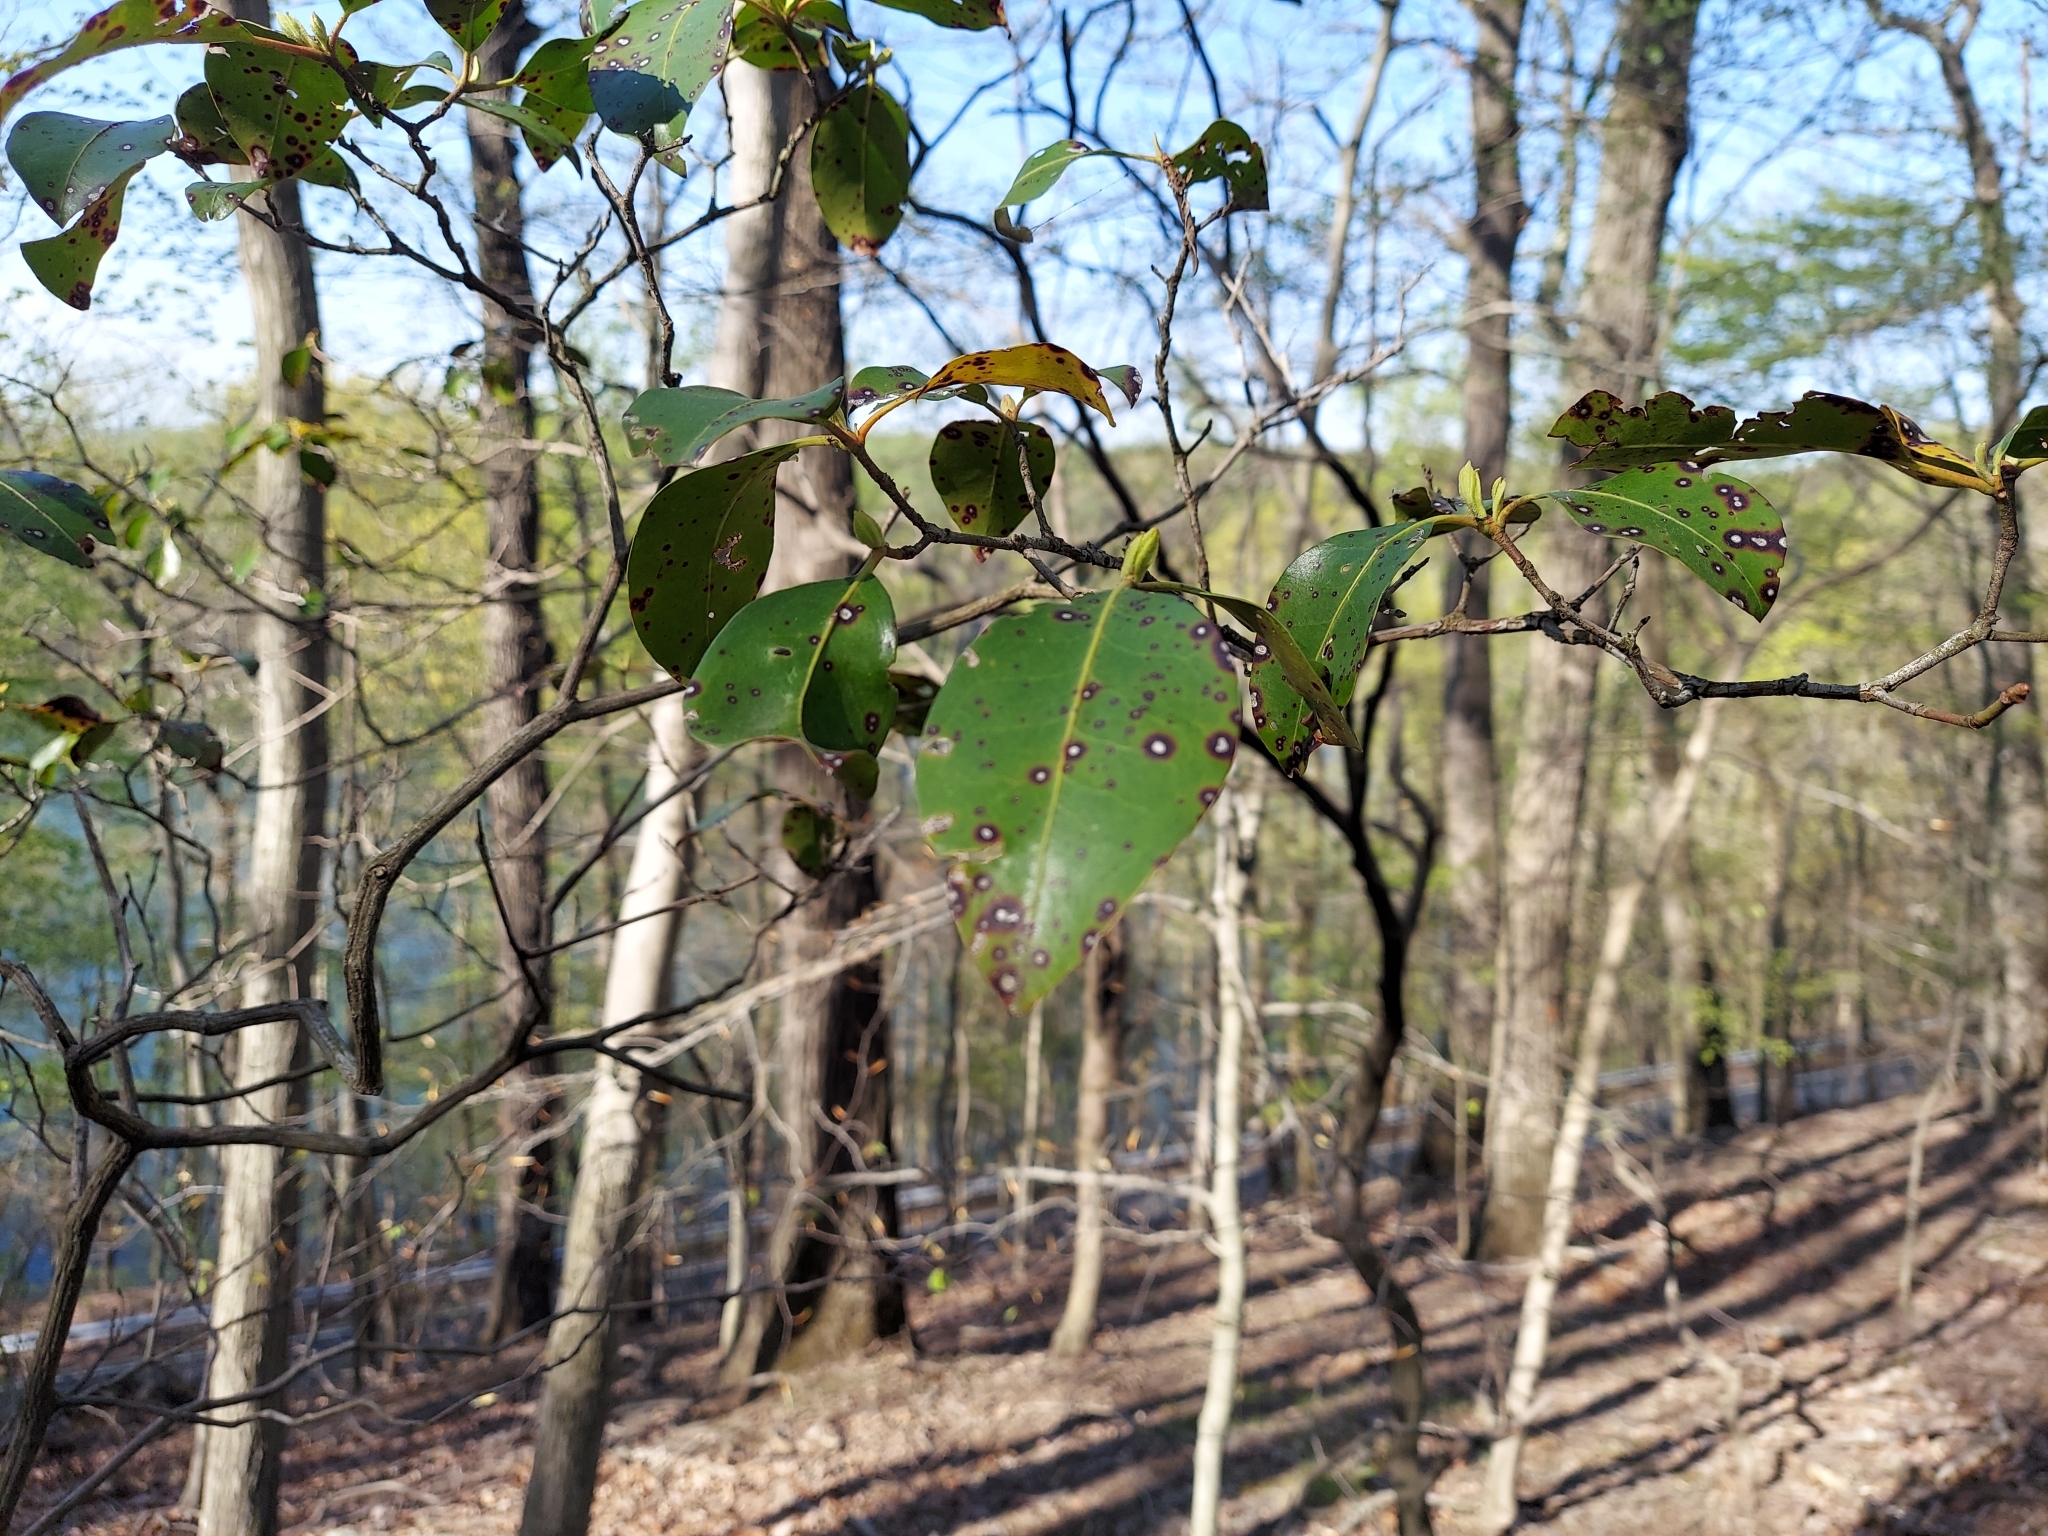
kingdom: Plantae
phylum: Tracheophyta
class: Magnoliopsida
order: Ericales
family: Ericaceae
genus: Kalmia
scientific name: Kalmia latifolia
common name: Mountain-laurel
